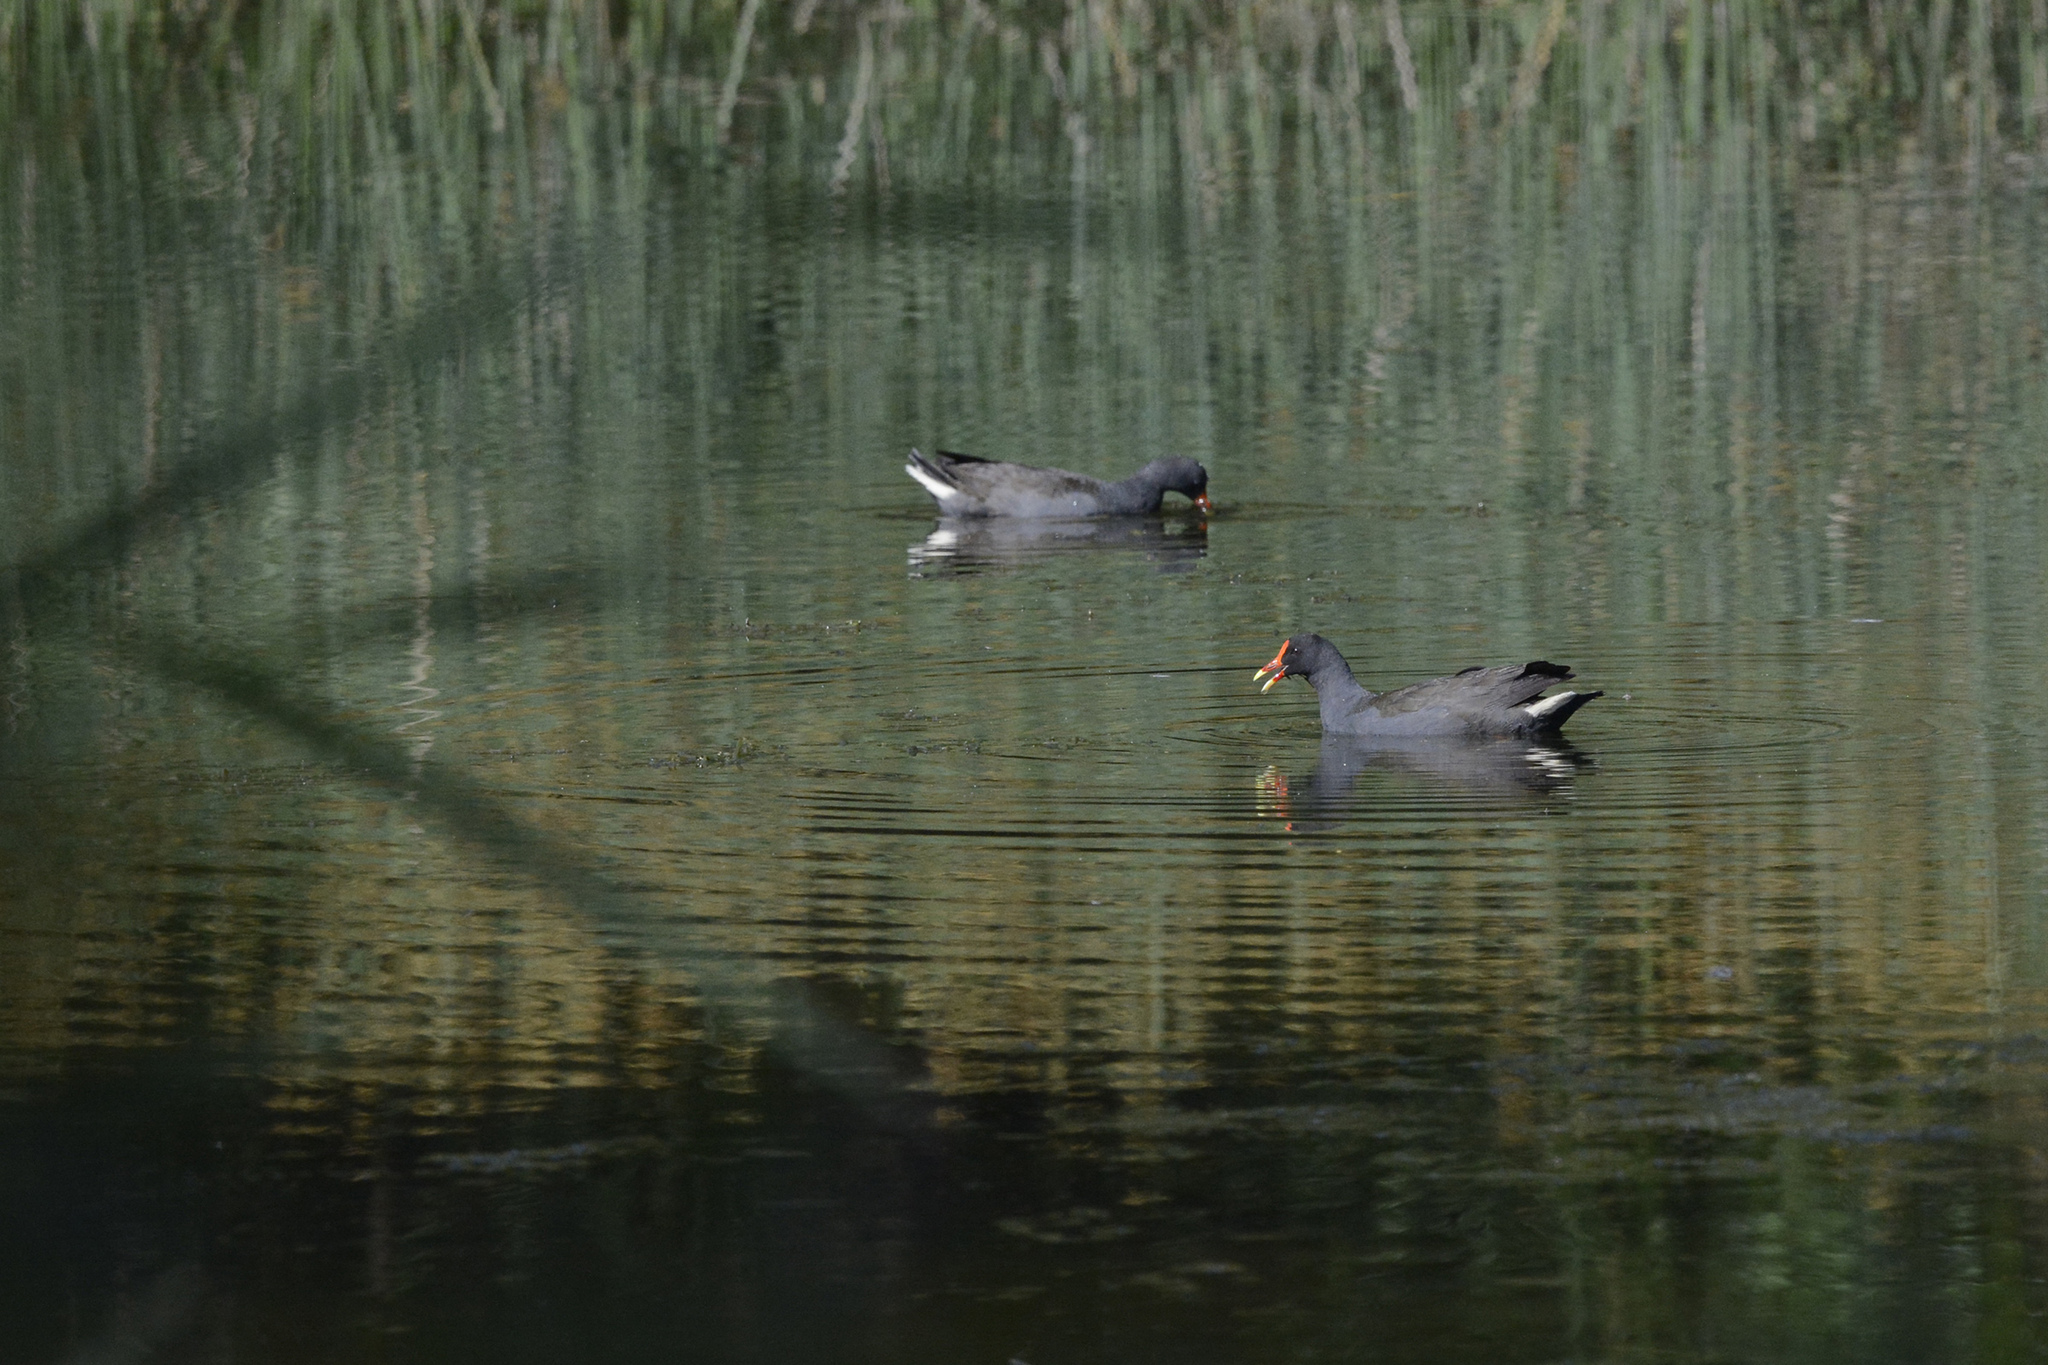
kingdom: Animalia
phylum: Chordata
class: Aves
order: Gruiformes
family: Rallidae
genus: Gallinula
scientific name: Gallinula tenebrosa
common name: Dusky moorhen
